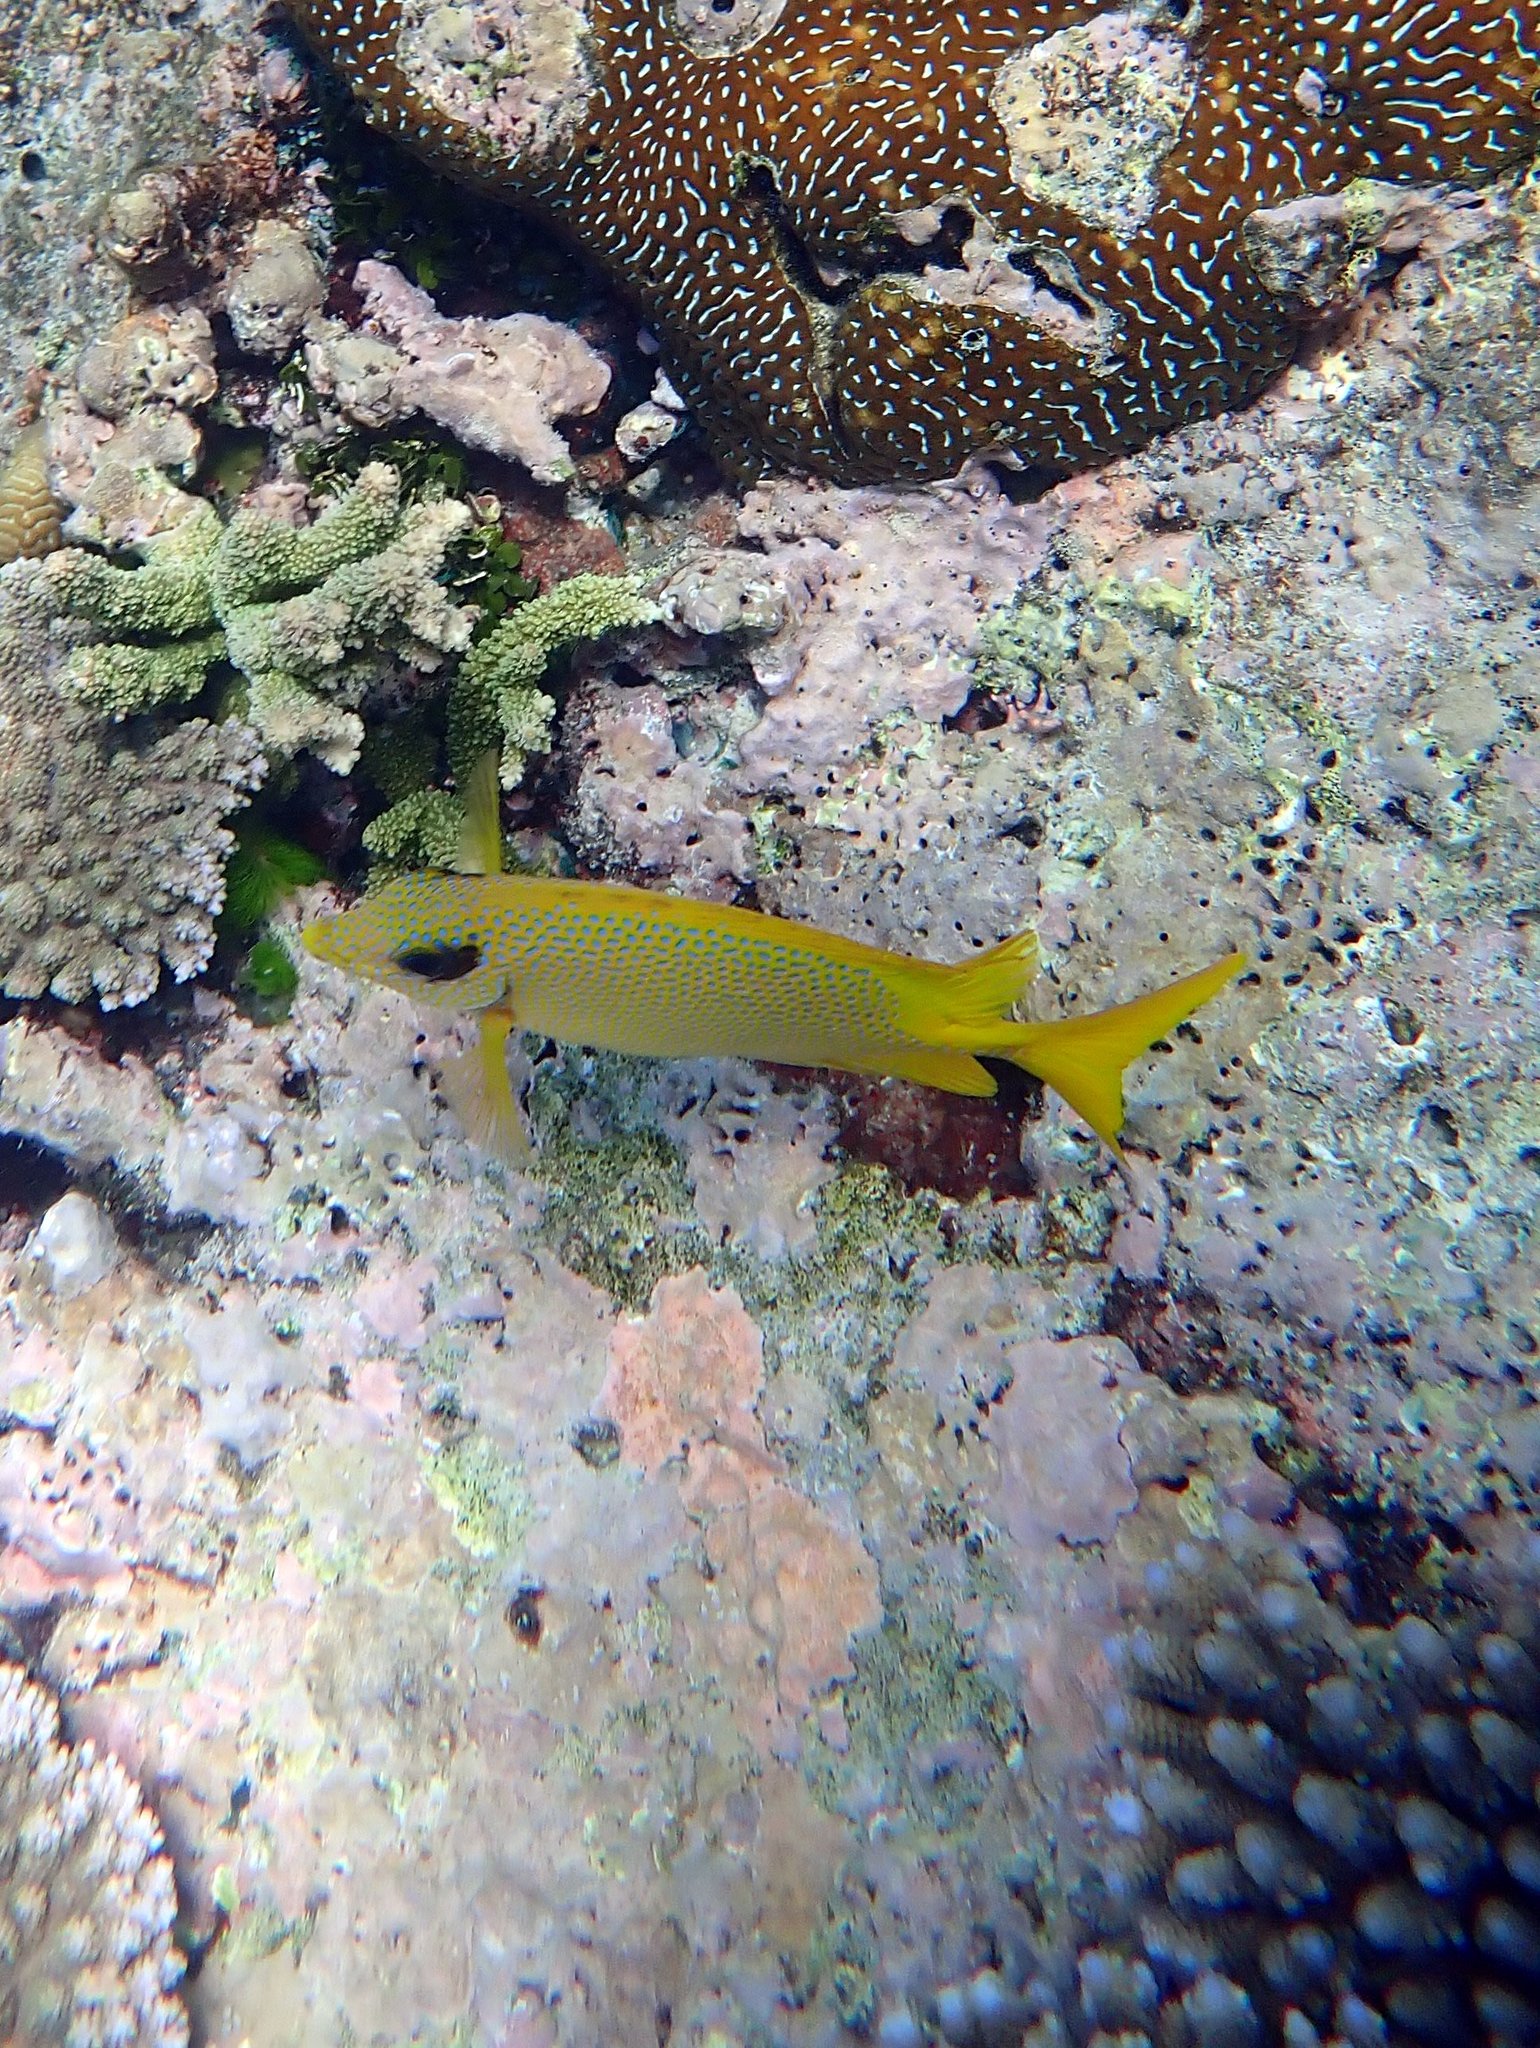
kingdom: Animalia
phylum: Chordata
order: Perciformes
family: Siganidae
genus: Siganus
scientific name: Siganus corallinus
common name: Coral rabbitfish
